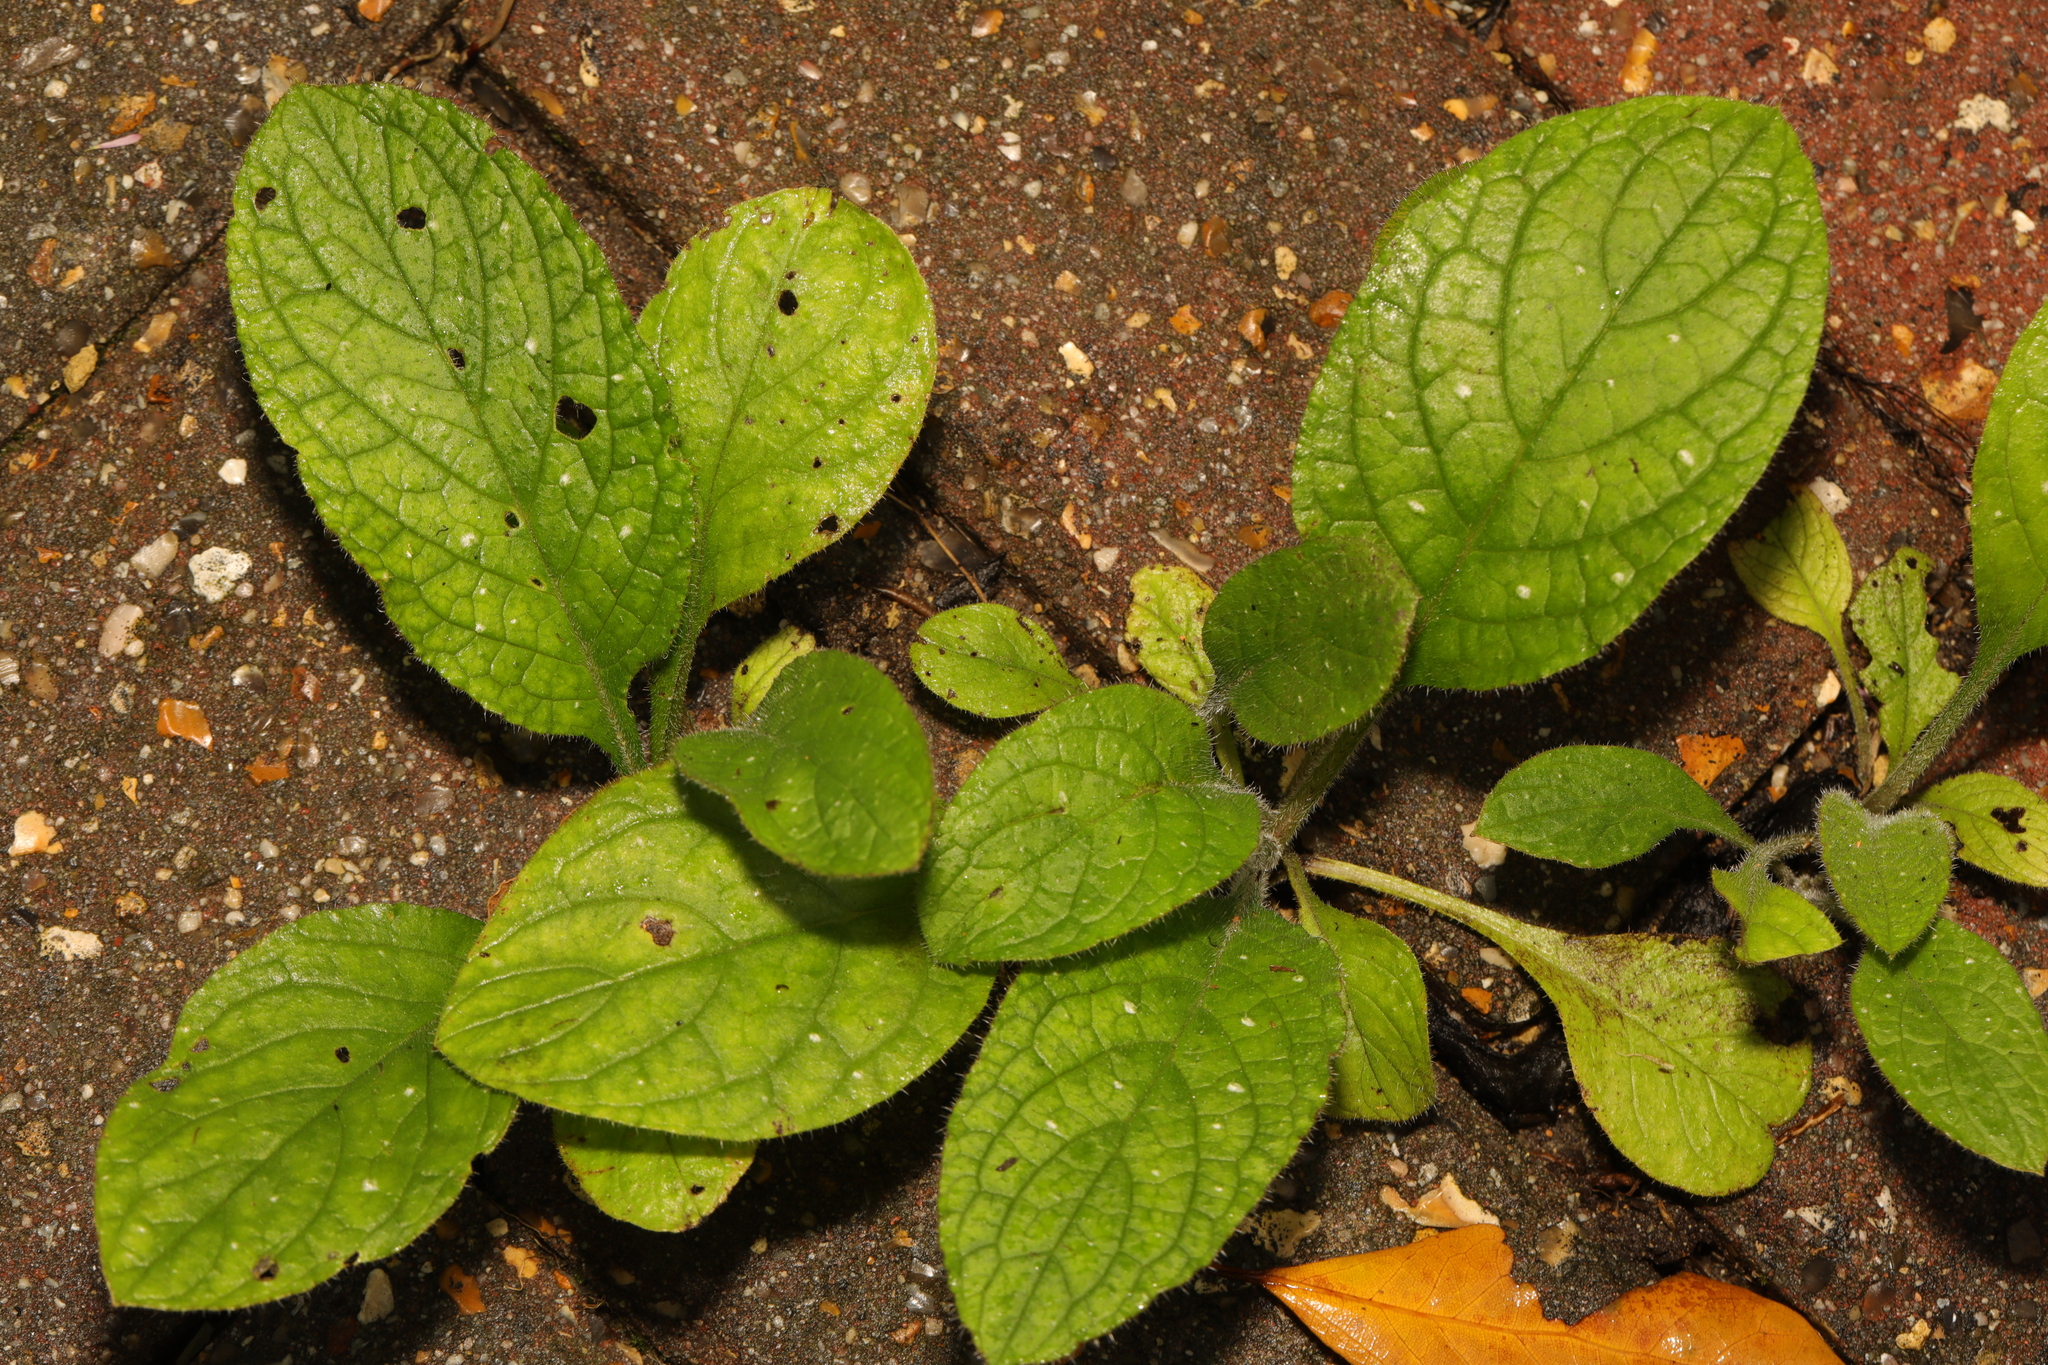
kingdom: Plantae
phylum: Tracheophyta
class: Magnoliopsida
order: Boraginales
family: Boraginaceae
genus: Pentaglottis
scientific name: Pentaglottis sempervirens
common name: Green alkanet
